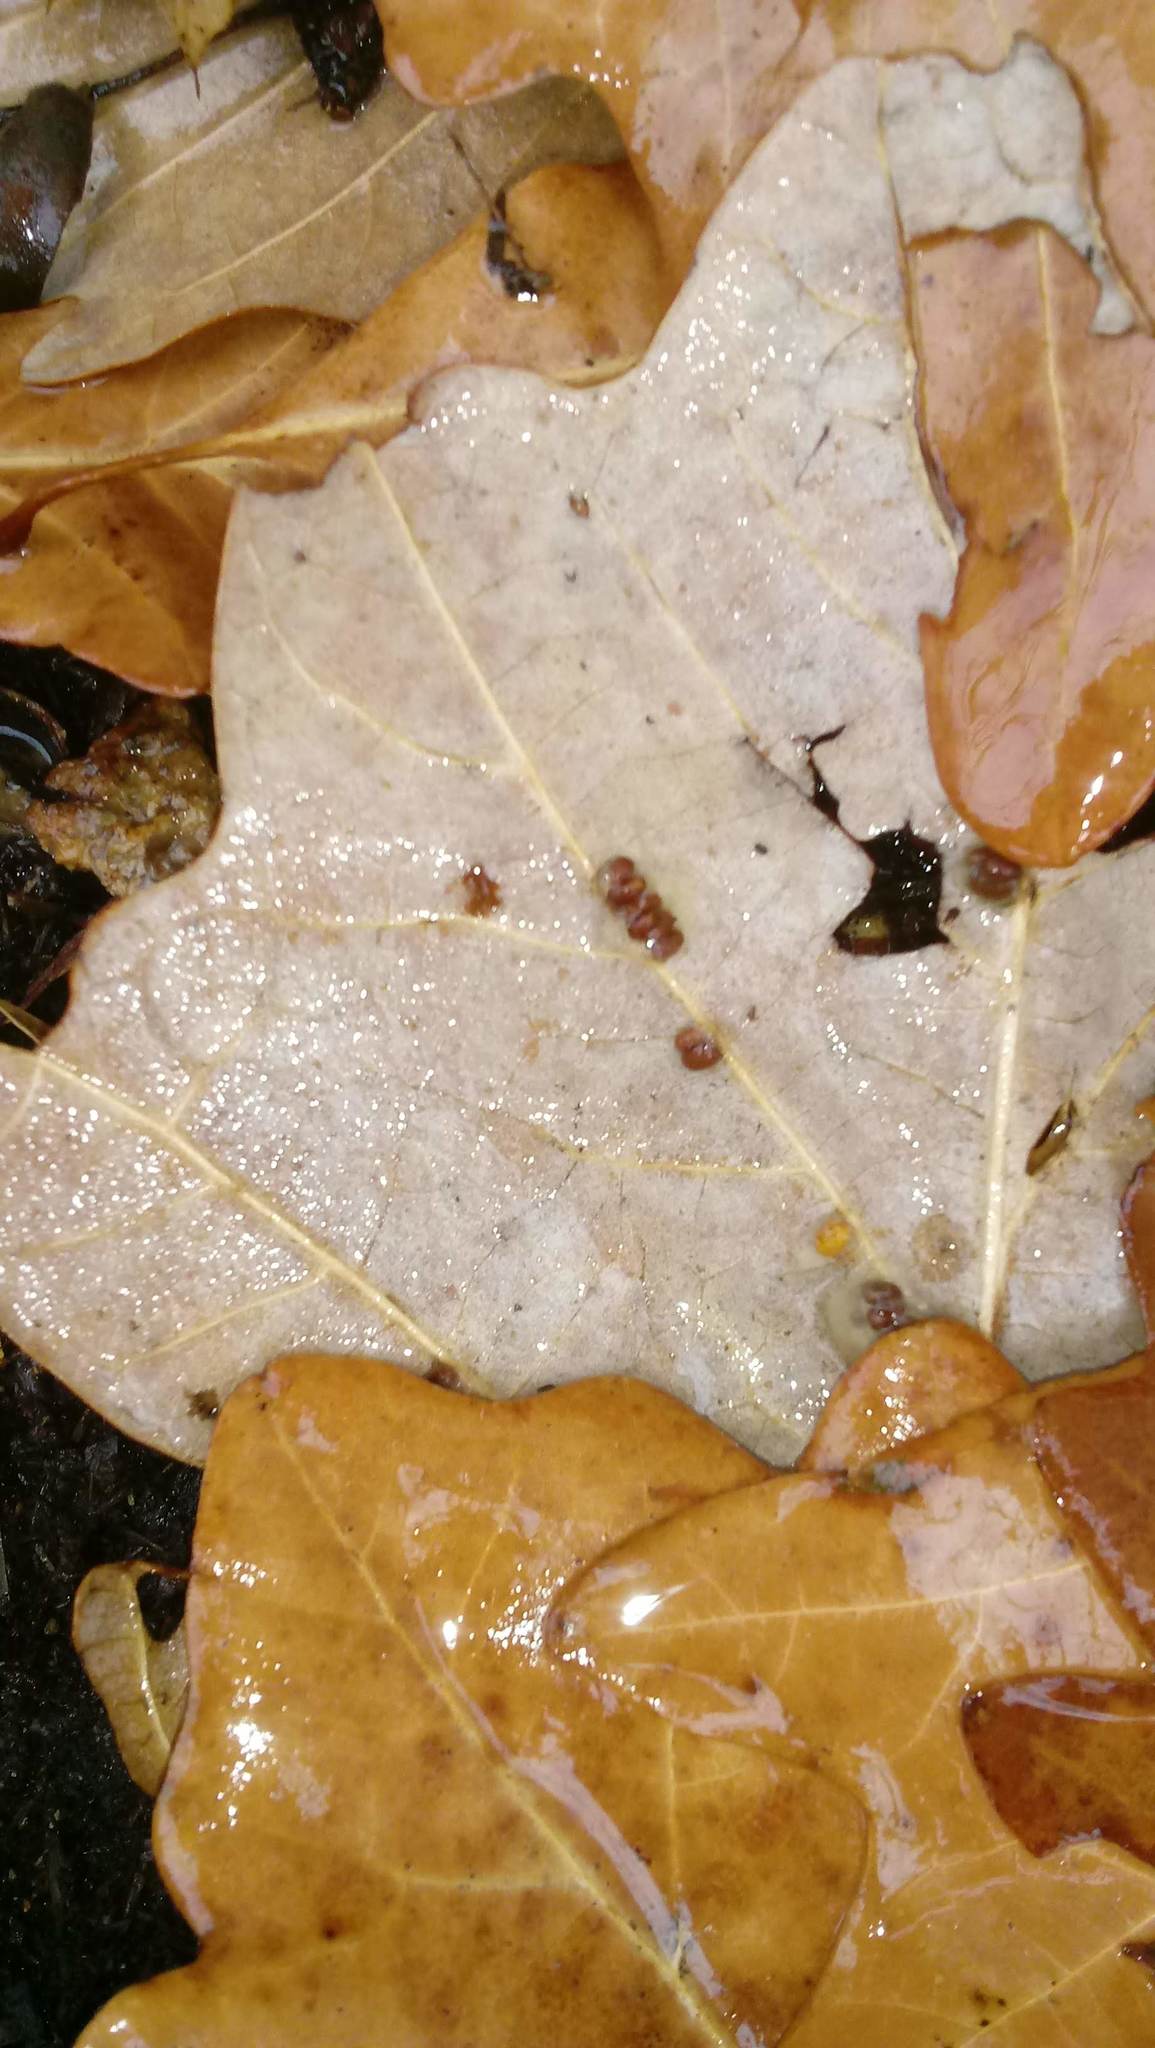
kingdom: Animalia
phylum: Arthropoda
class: Insecta
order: Hymenoptera
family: Cynipidae
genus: Andricus
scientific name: Andricus Druon ignotum
